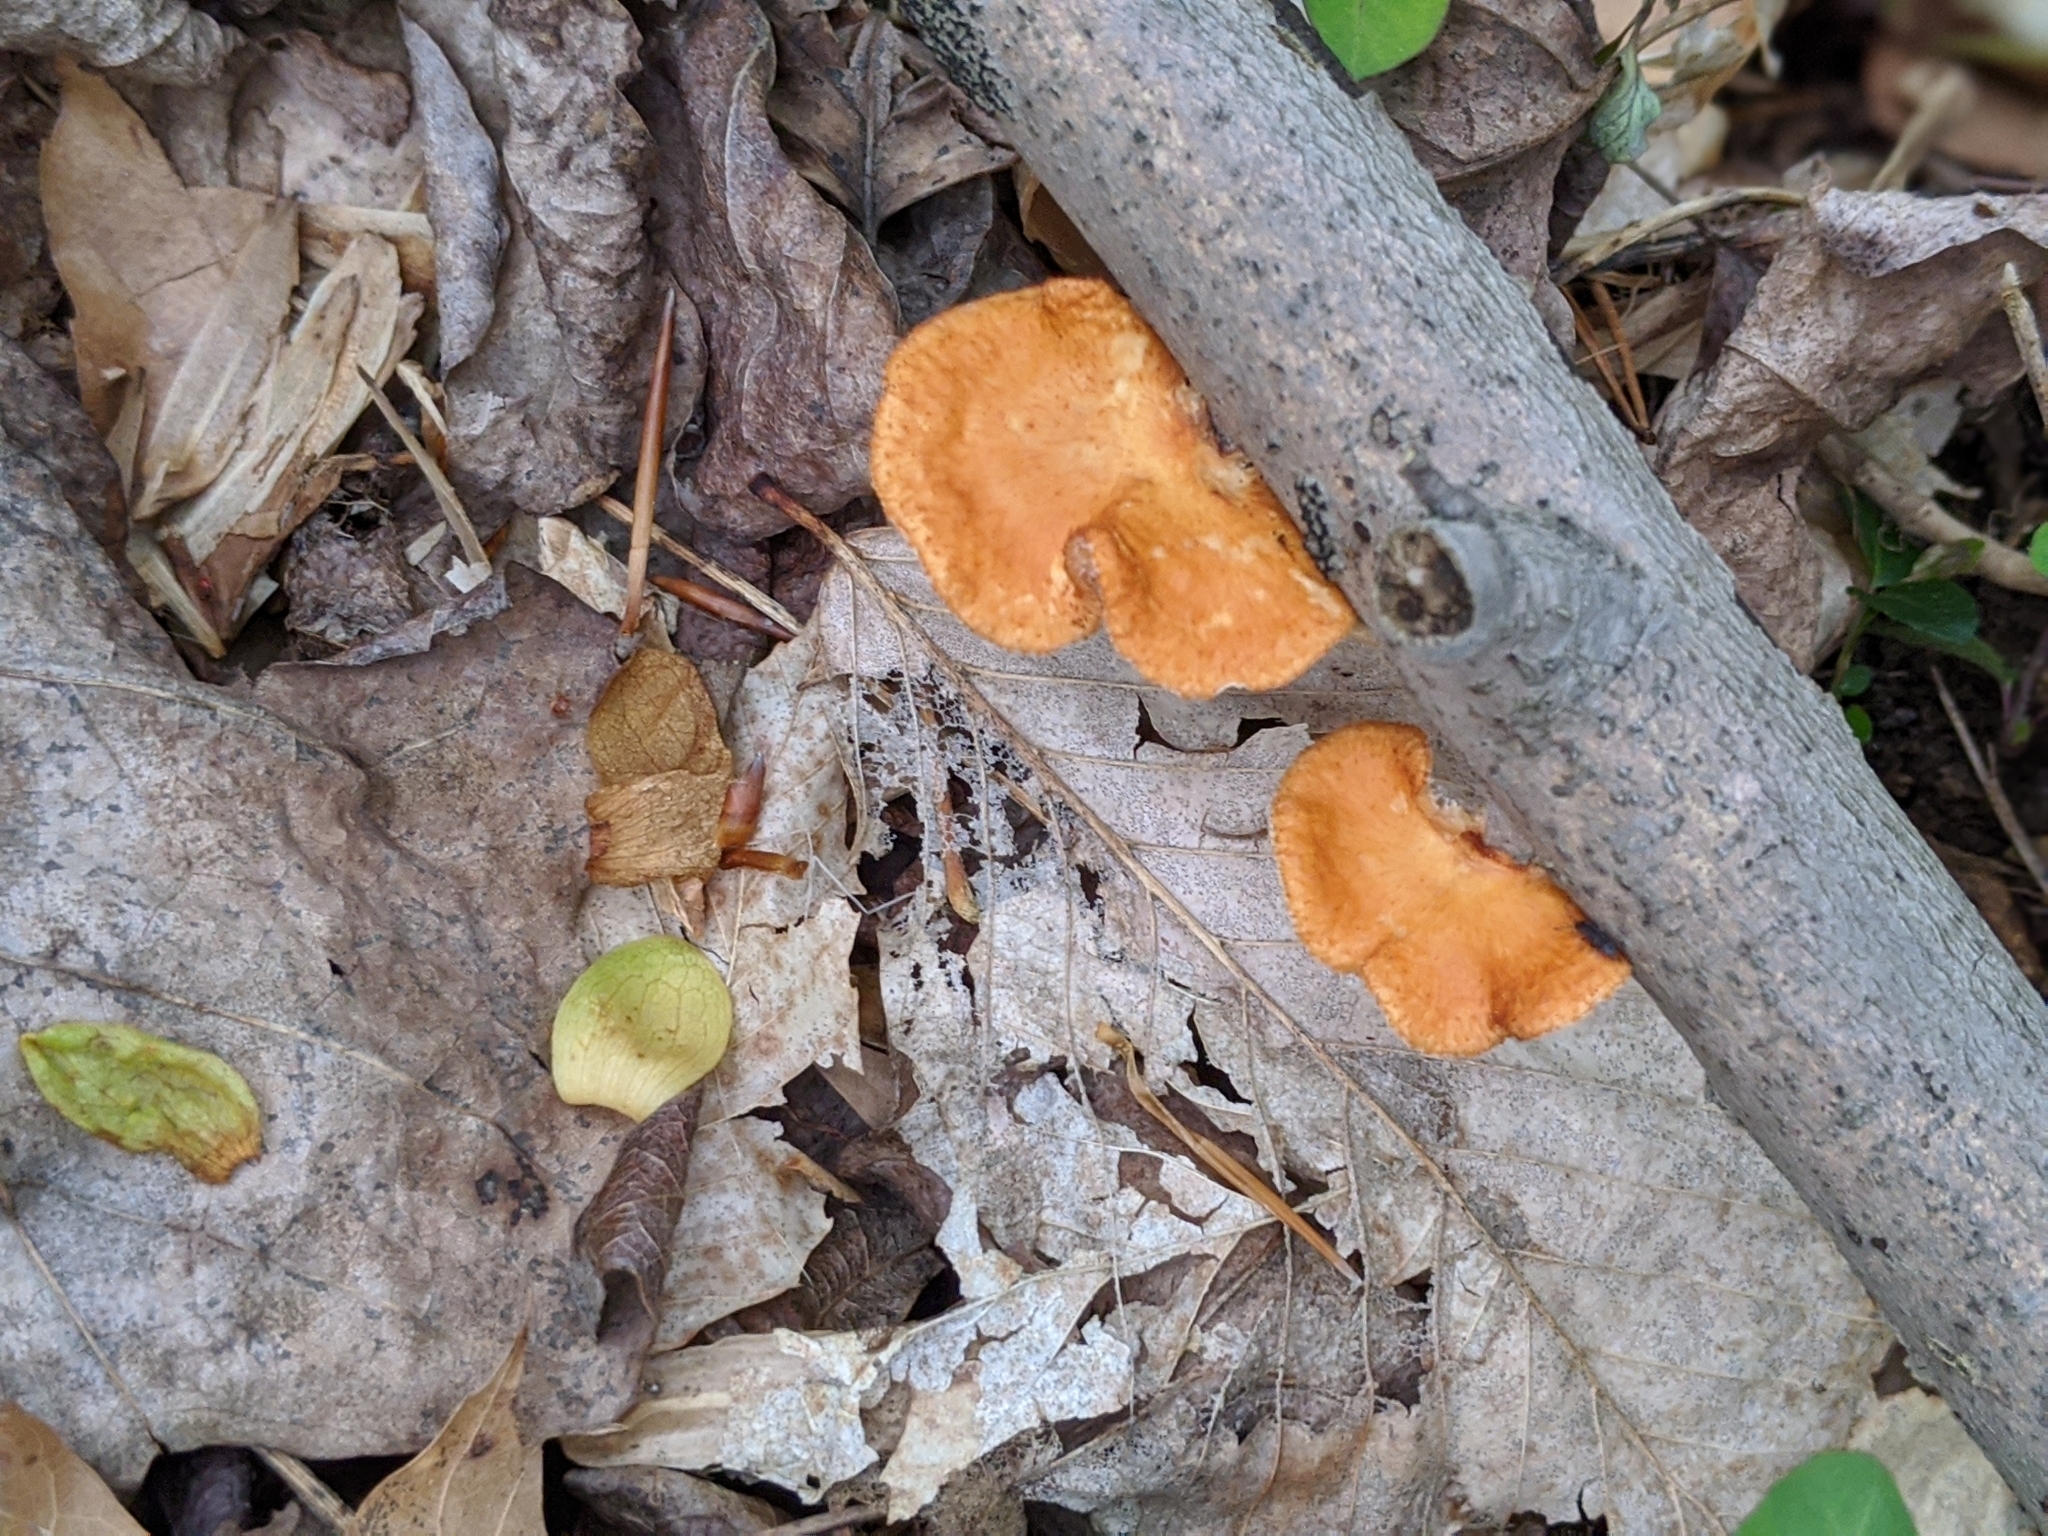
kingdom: Fungi
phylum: Basidiomycota
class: Agaricomycetes
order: Polyporales
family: Polyporaceae
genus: Neofavolus
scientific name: Neofavolus alveolaris
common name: Hexagonal-pored polypore
